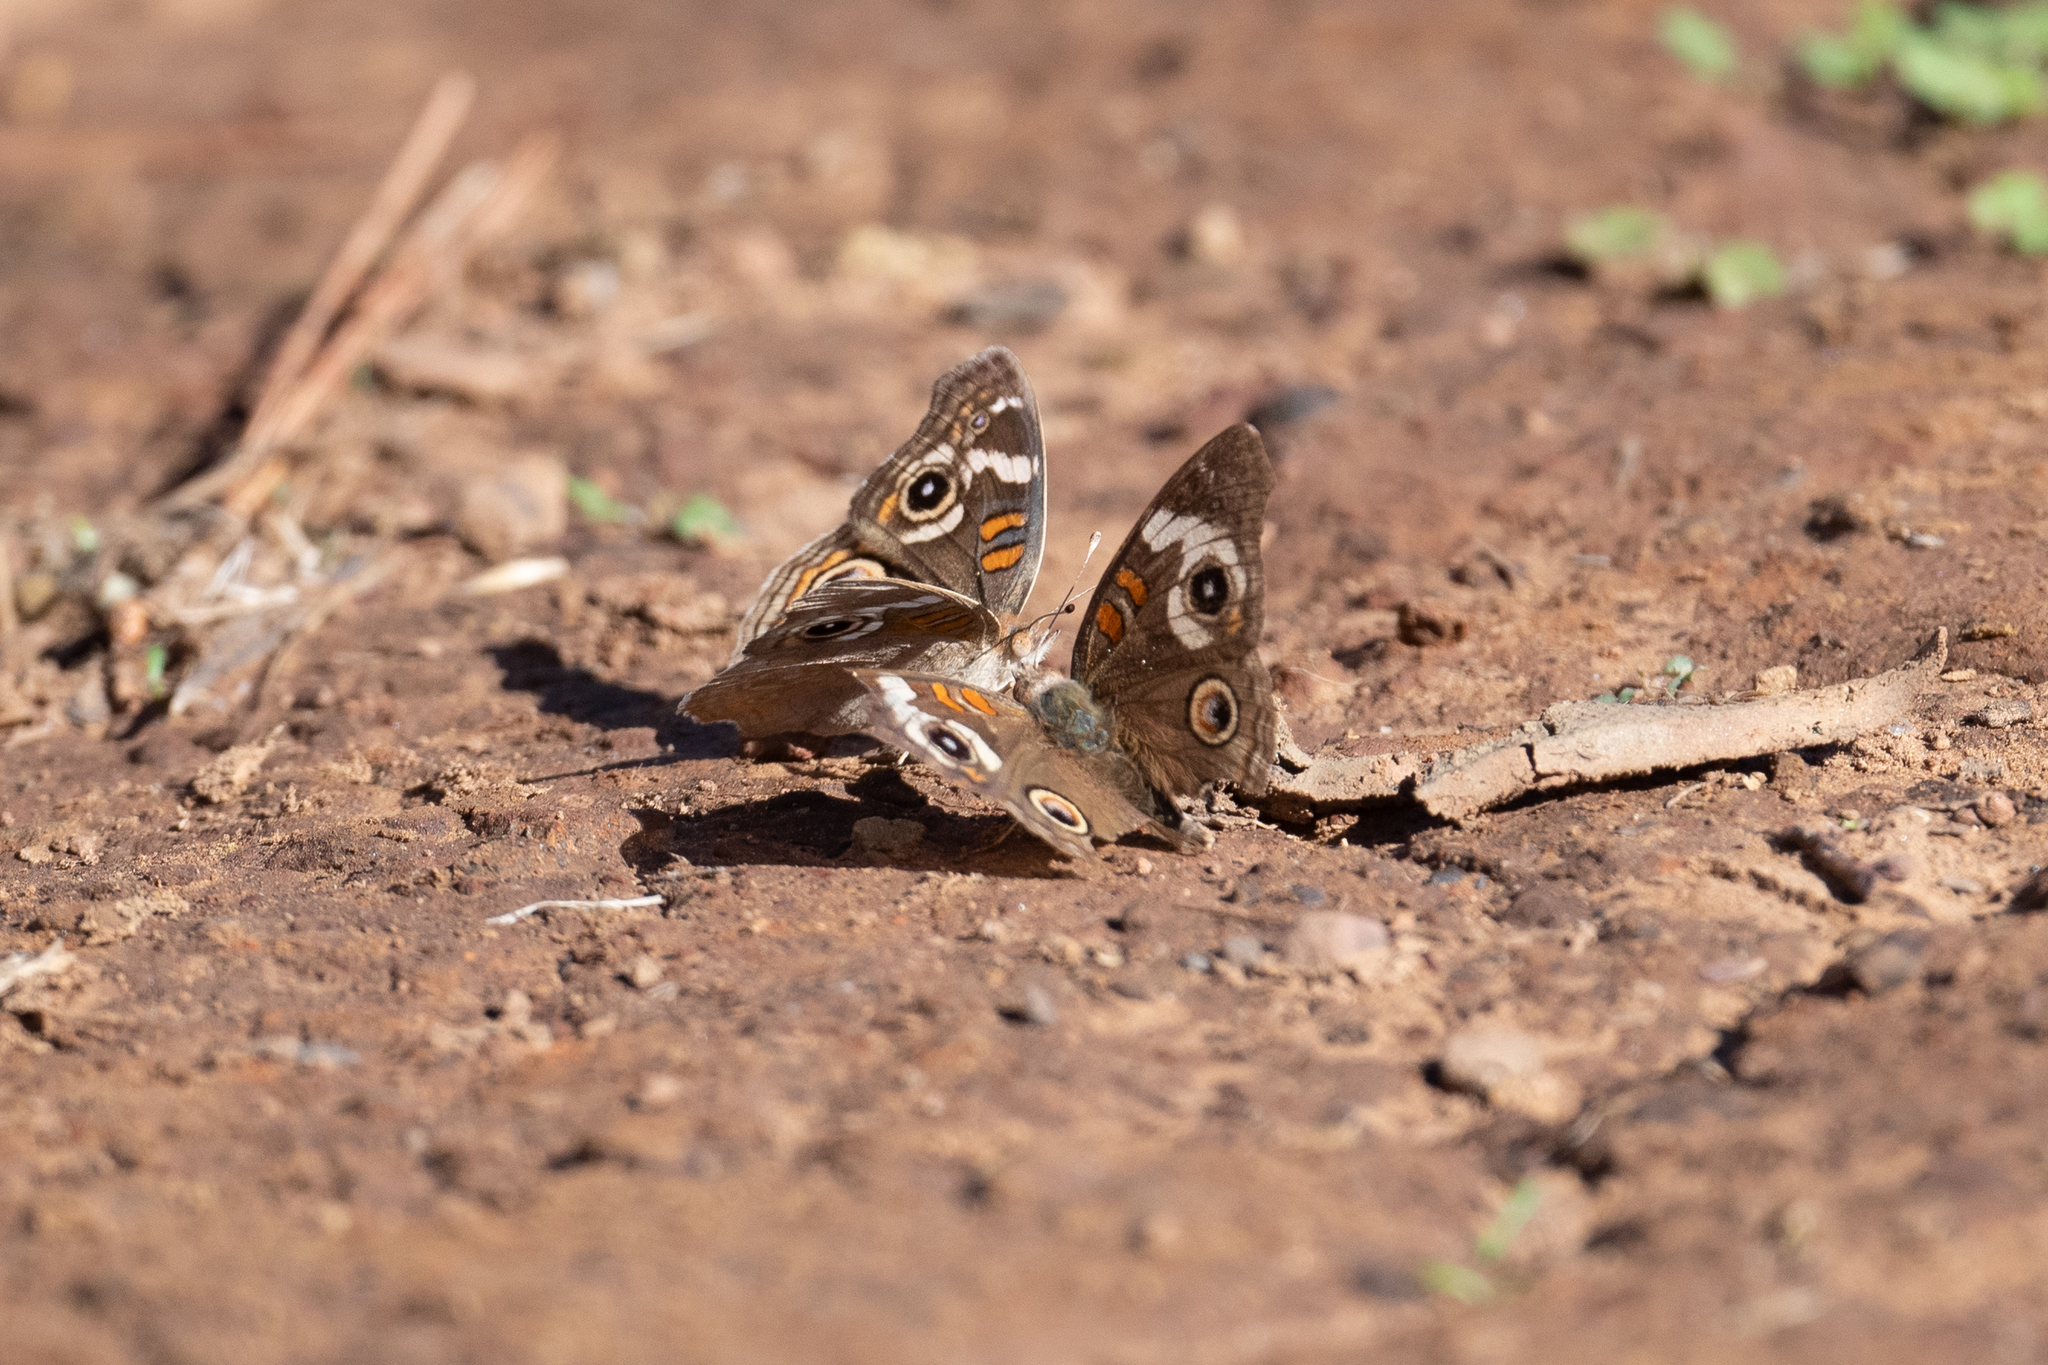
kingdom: Animalia
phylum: Arthropoda
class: Insecta
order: Lepidoptera
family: Nymphalidae
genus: Junonia
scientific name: Junonia grisea
